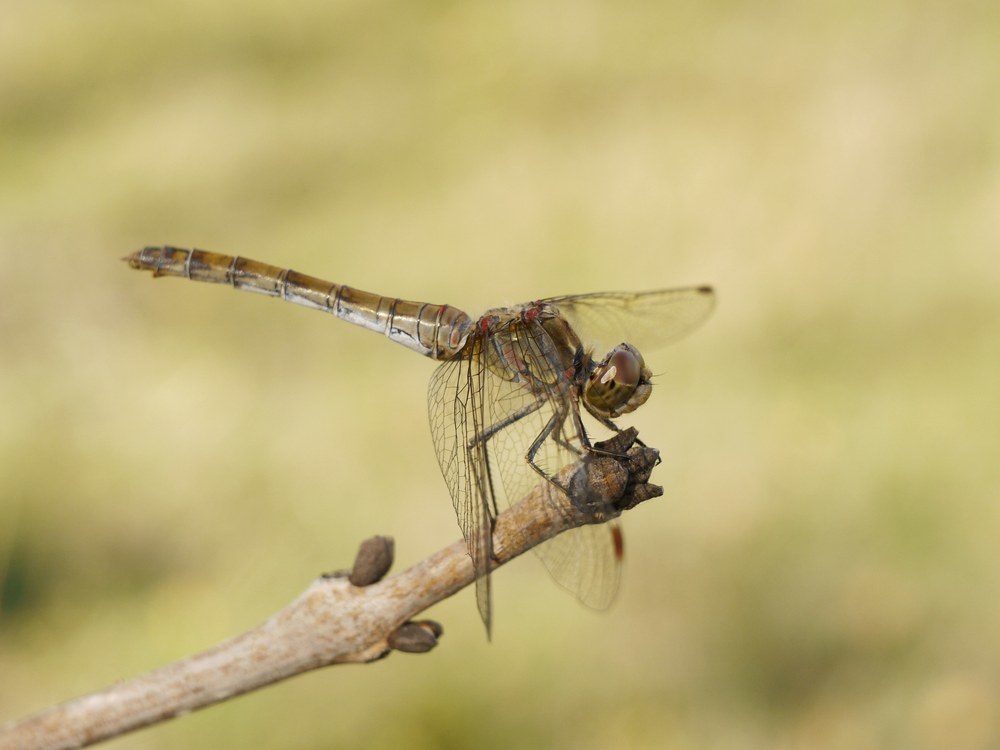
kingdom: Animalia
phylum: Arthropoda
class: Insecta
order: Odonata
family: Libellulidae
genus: Sympetrum
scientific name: Sympetrum striolatum
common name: Common darter
